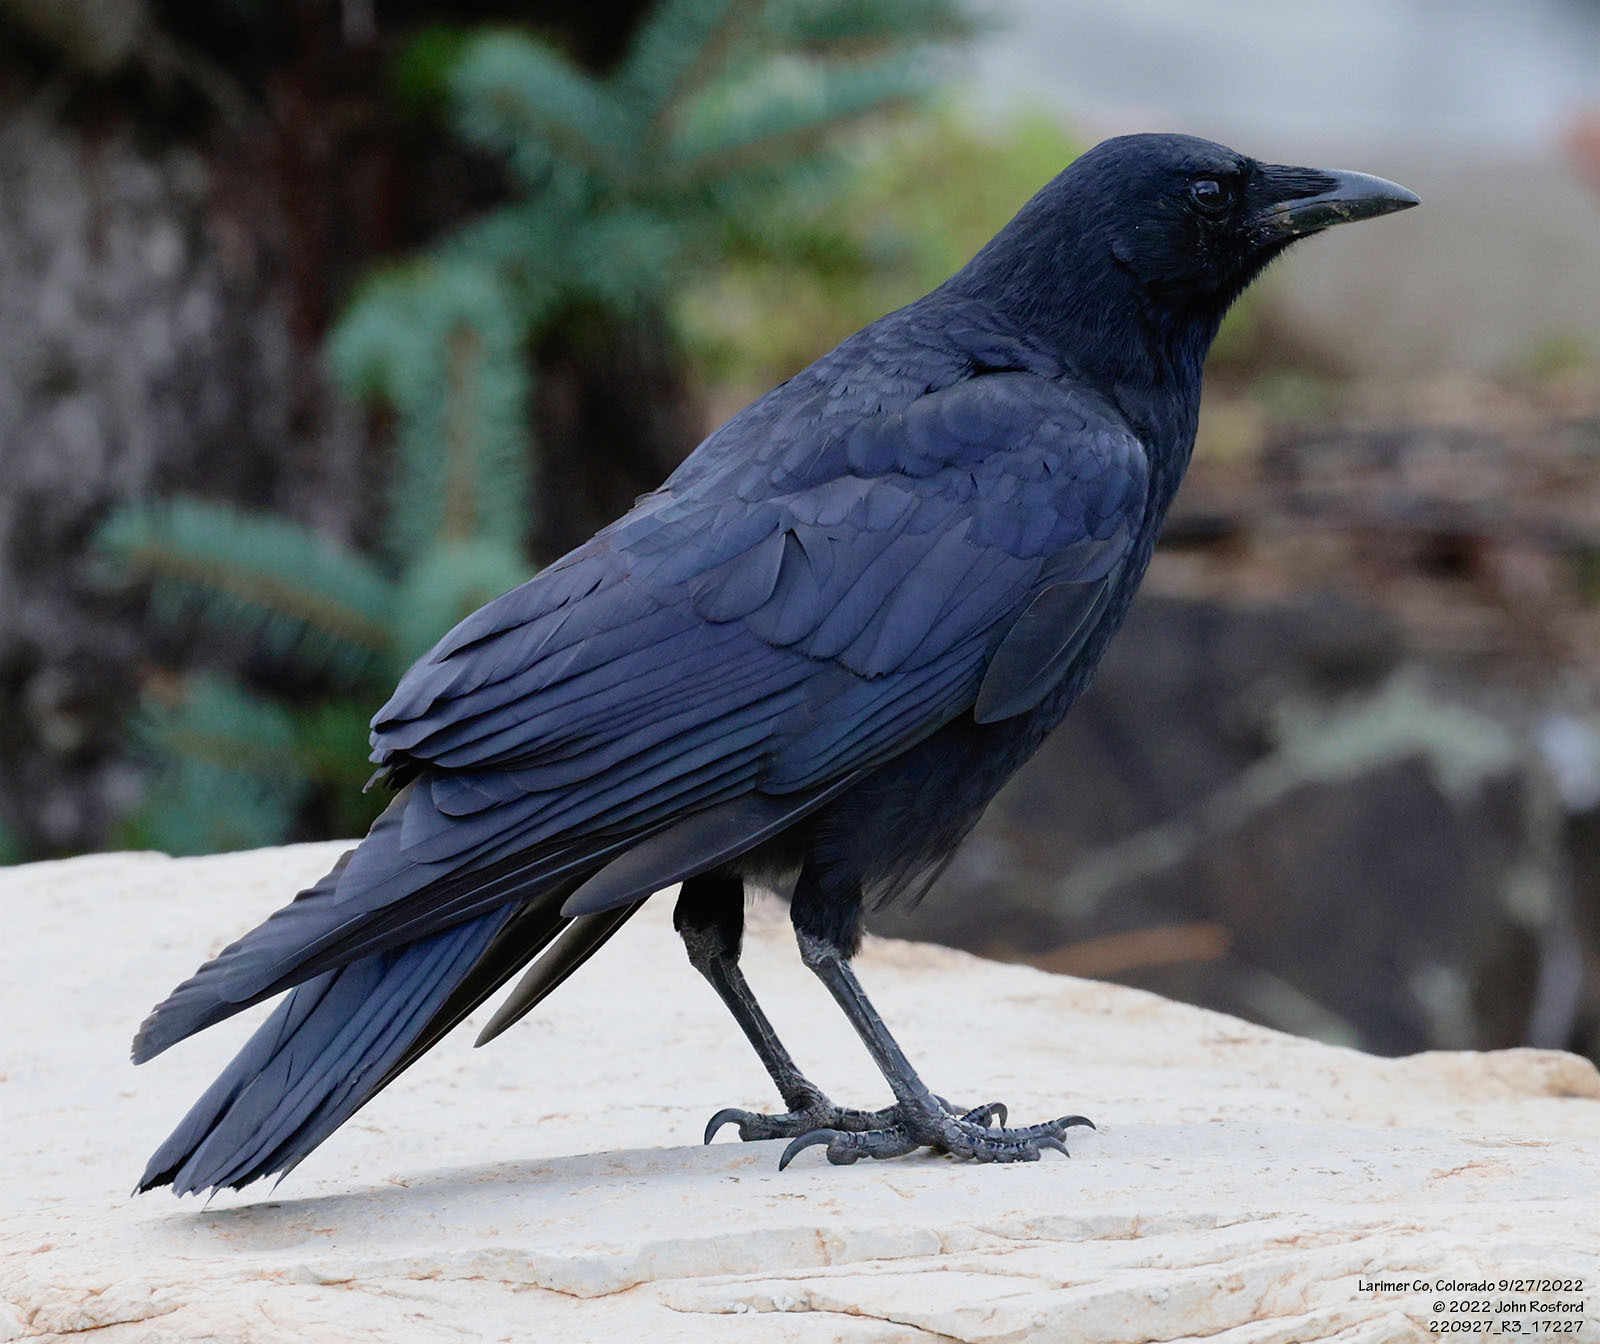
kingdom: Animalia
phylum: Chordata
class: Aves
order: Passeriformes
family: Corvidae
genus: Corvus
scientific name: Corvus brachyrhynchos
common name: American crow
